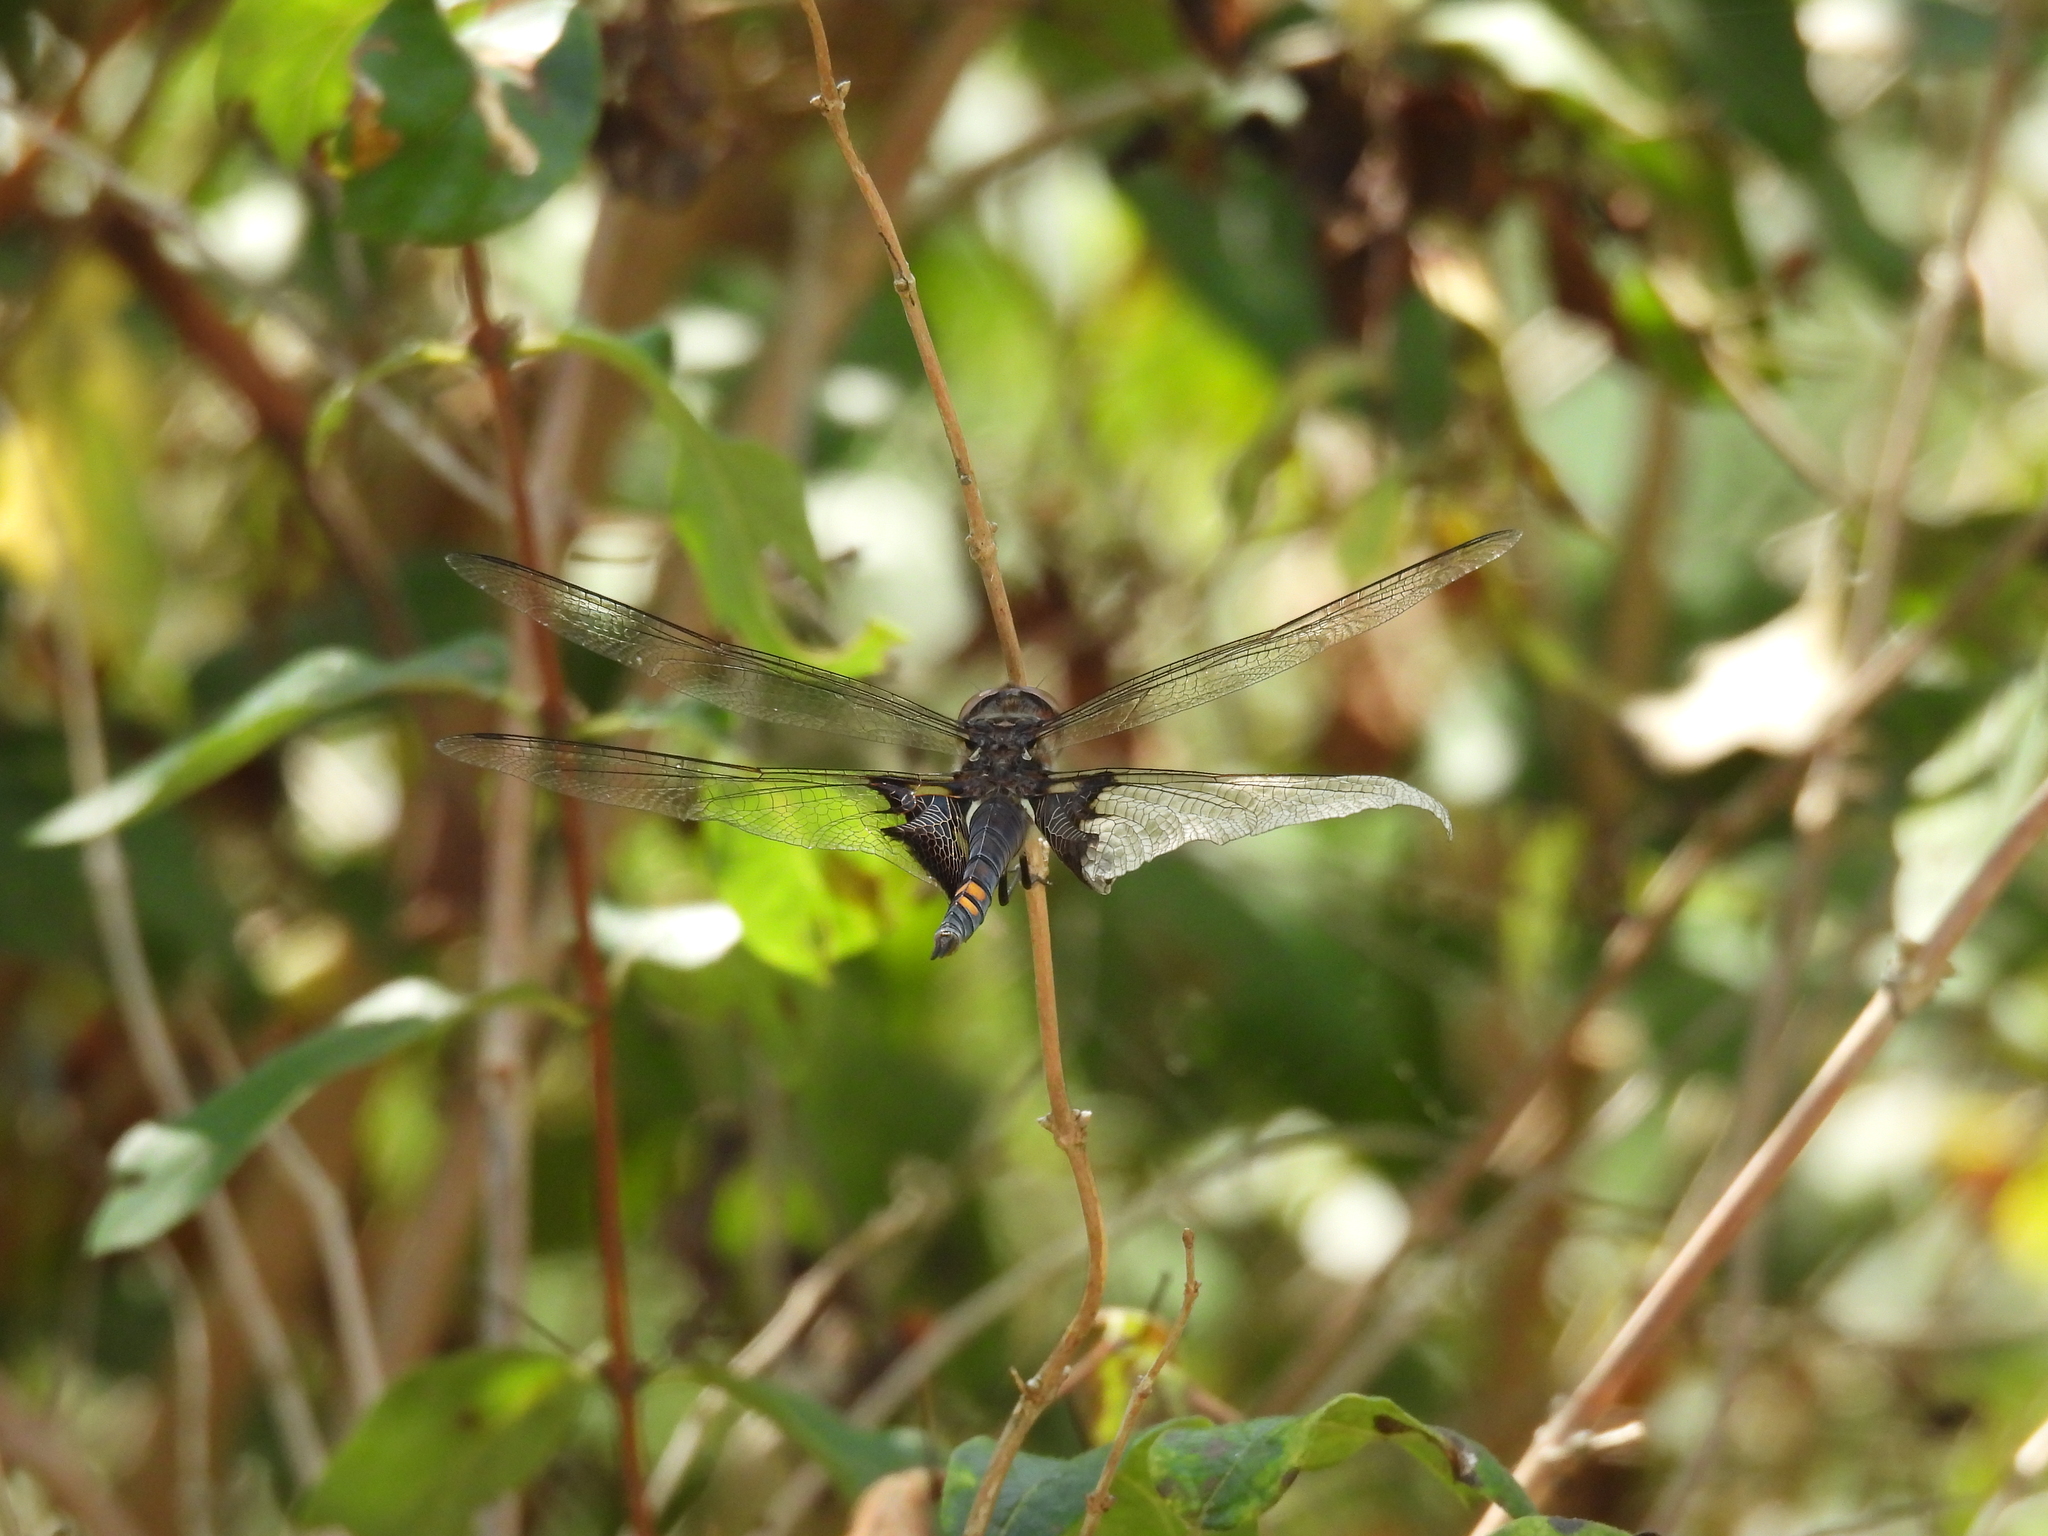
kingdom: Animalia
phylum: Arthropoda
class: Insecta
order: Odonata
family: Libellulidae
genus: Tramea
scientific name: Tramea lacerata
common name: Black saddlebags
